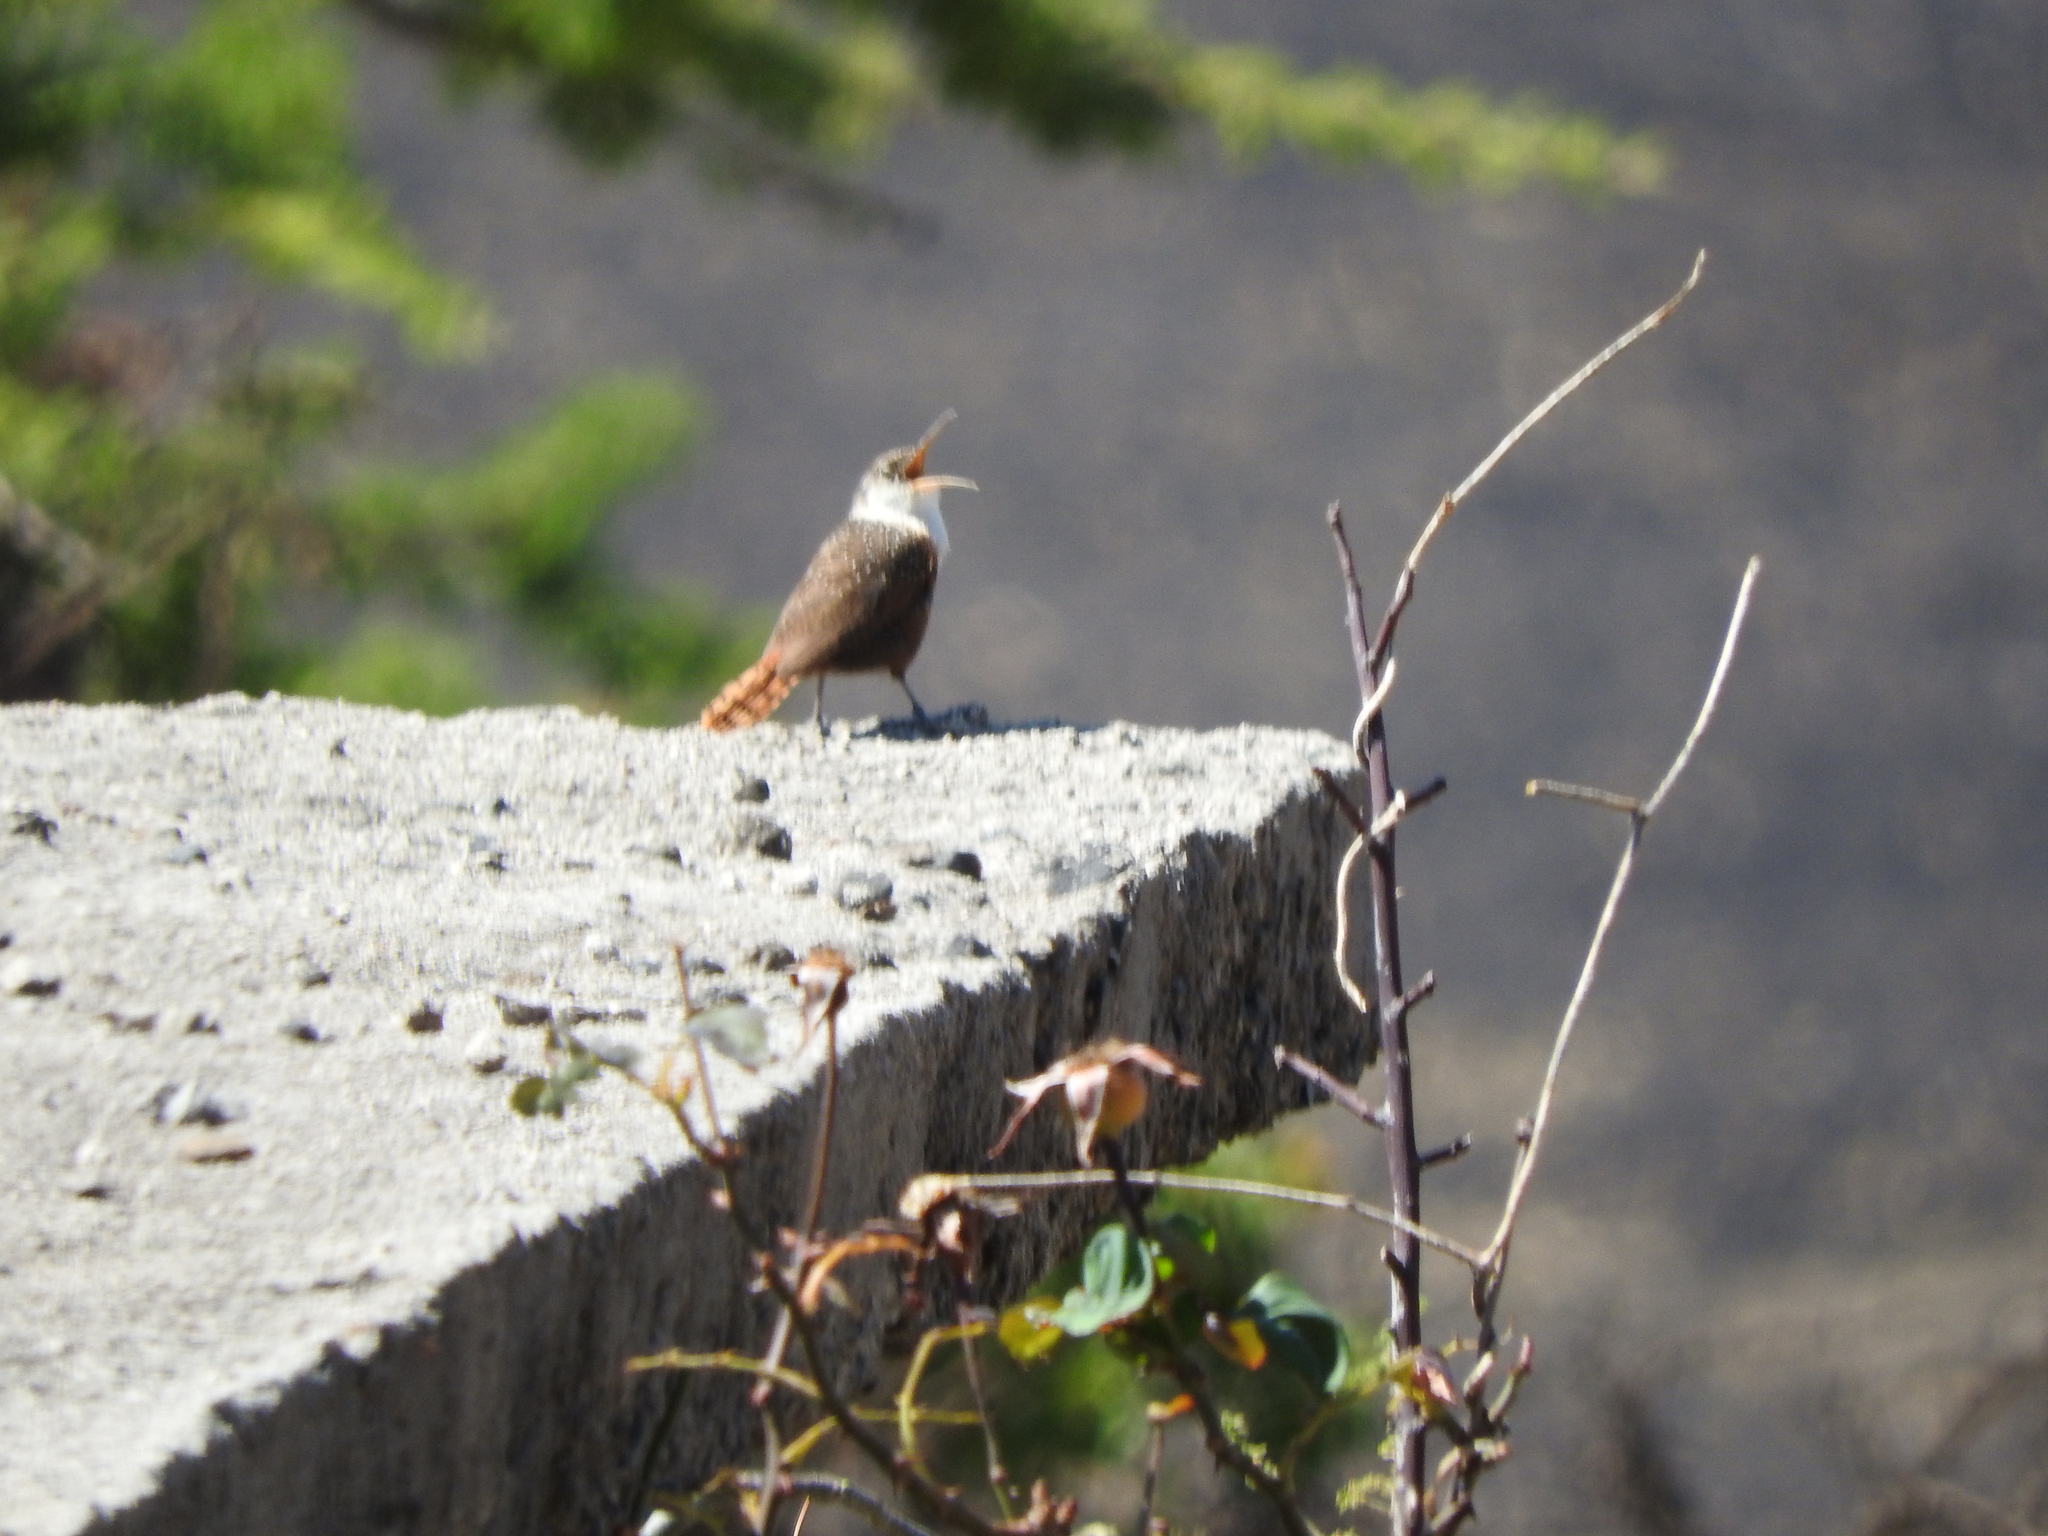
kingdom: Animalia
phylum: Chordata
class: Aves
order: Passeriformes
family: Troglodytidae
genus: Catherpes
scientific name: Catherpes mexicanus
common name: Canyon wren
